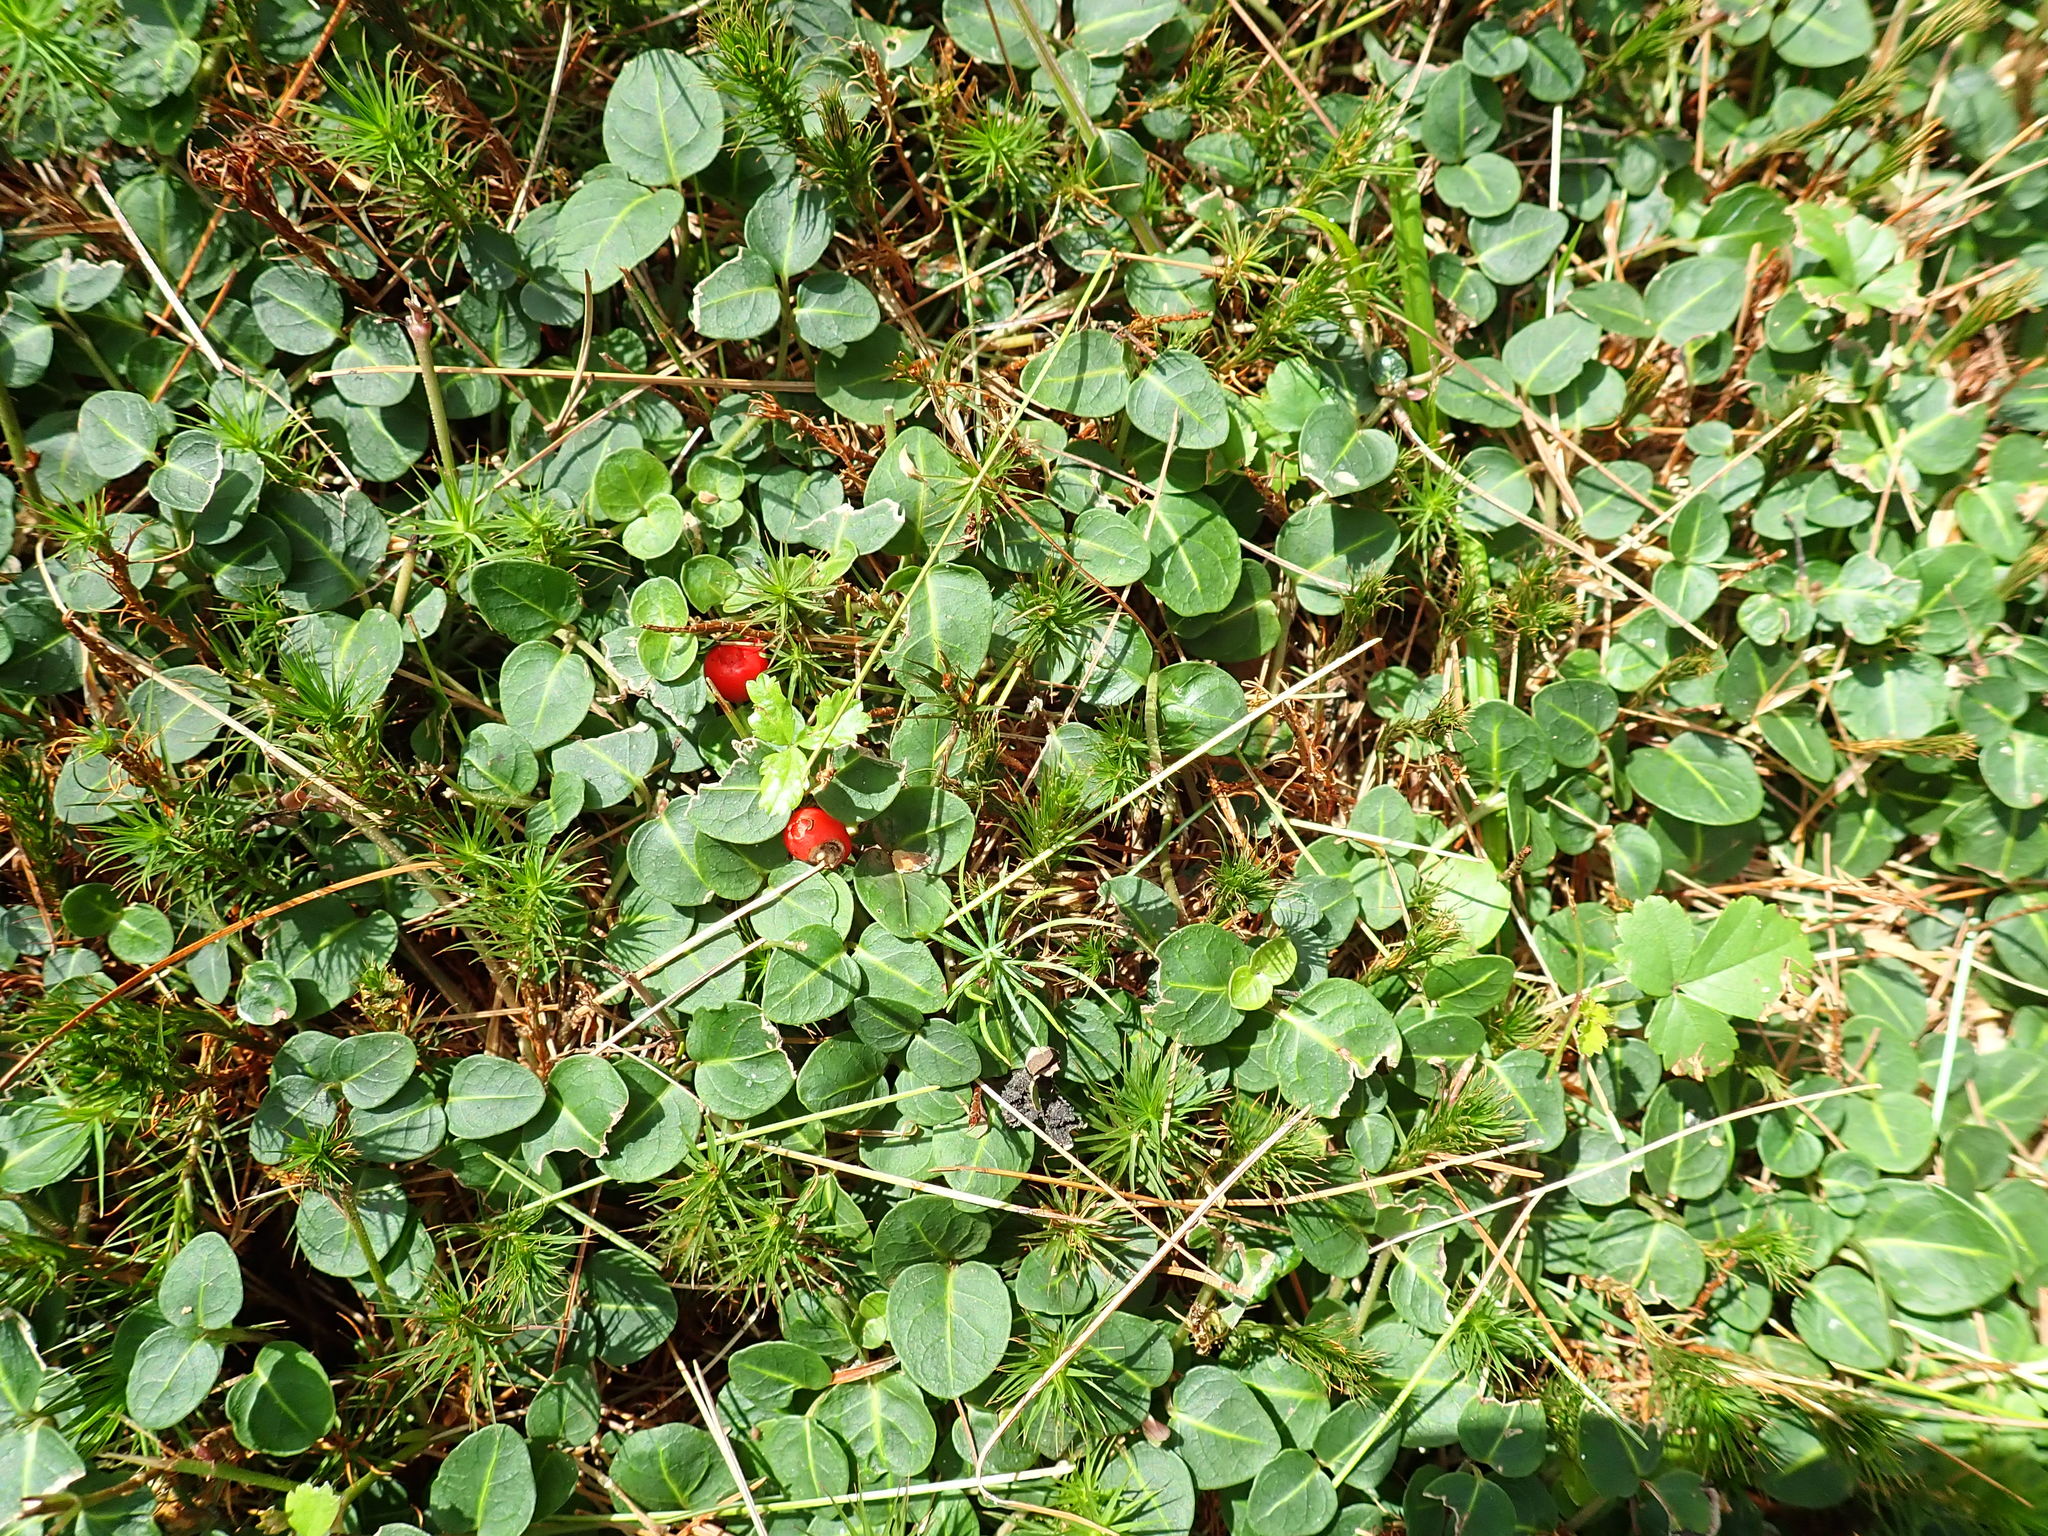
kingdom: Plantae
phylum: Tracheophyta
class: Magnoliopsida
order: Gentianales
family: Rubiaceae
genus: Mitchella
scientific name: Mitchella repens
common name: Partridge-berry
